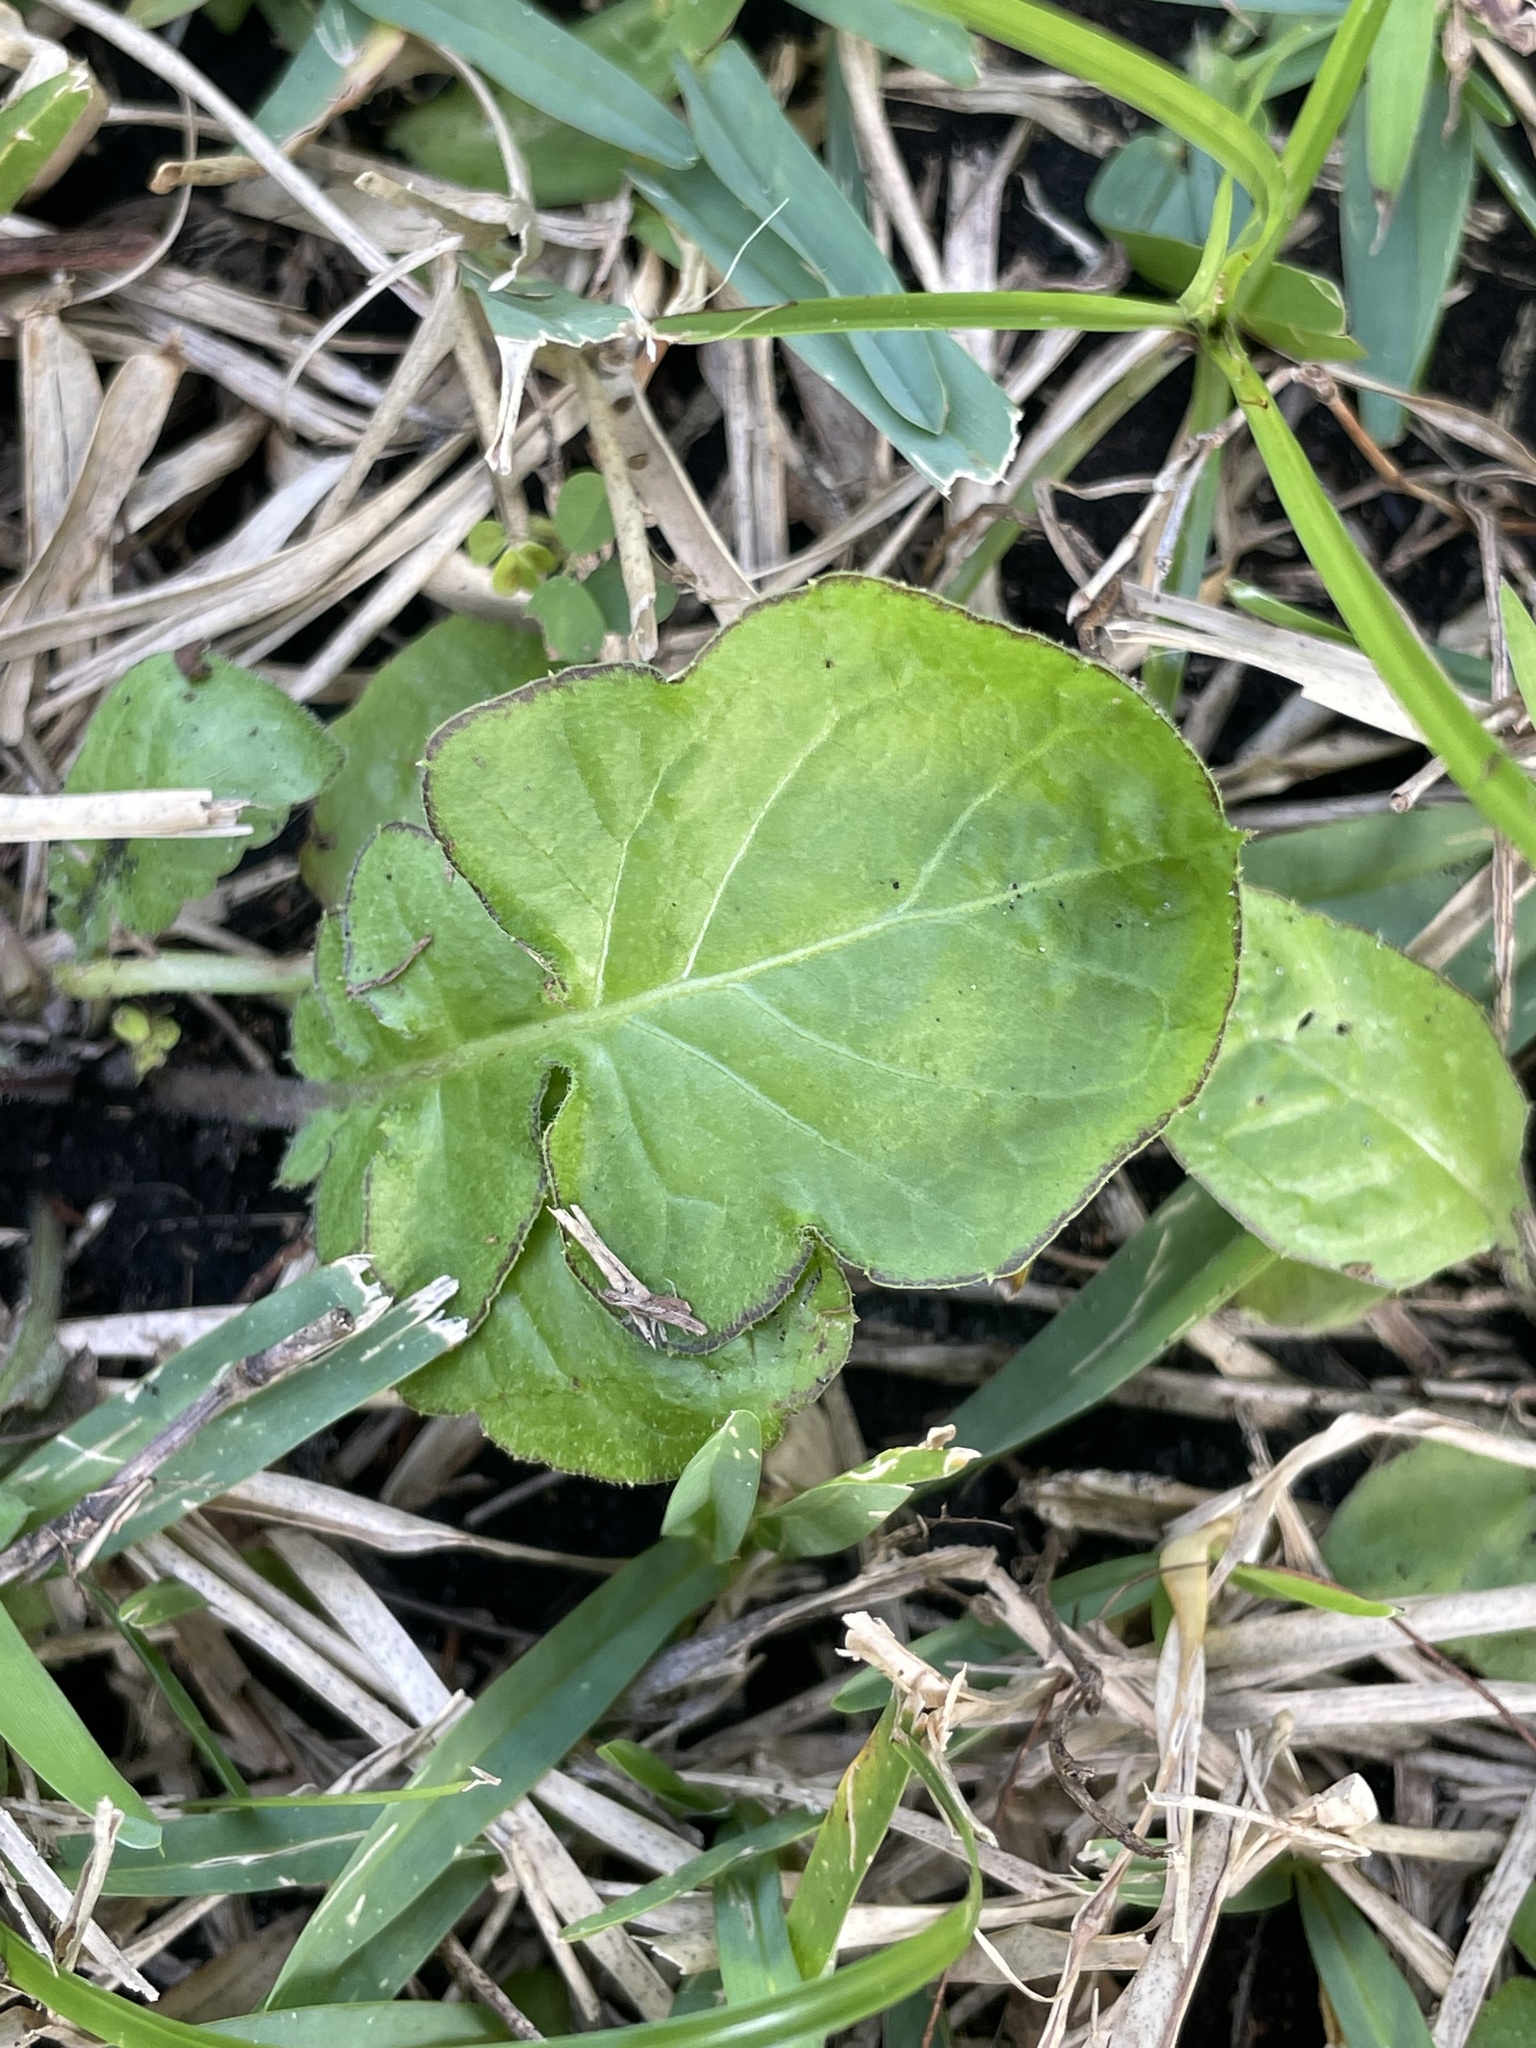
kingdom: Plantae
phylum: Tracheophyta
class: Magnoliopsida
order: Asterales
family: Asteraceae
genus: Youngia
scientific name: Youngia japonica
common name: Oriental false hawksbeard
